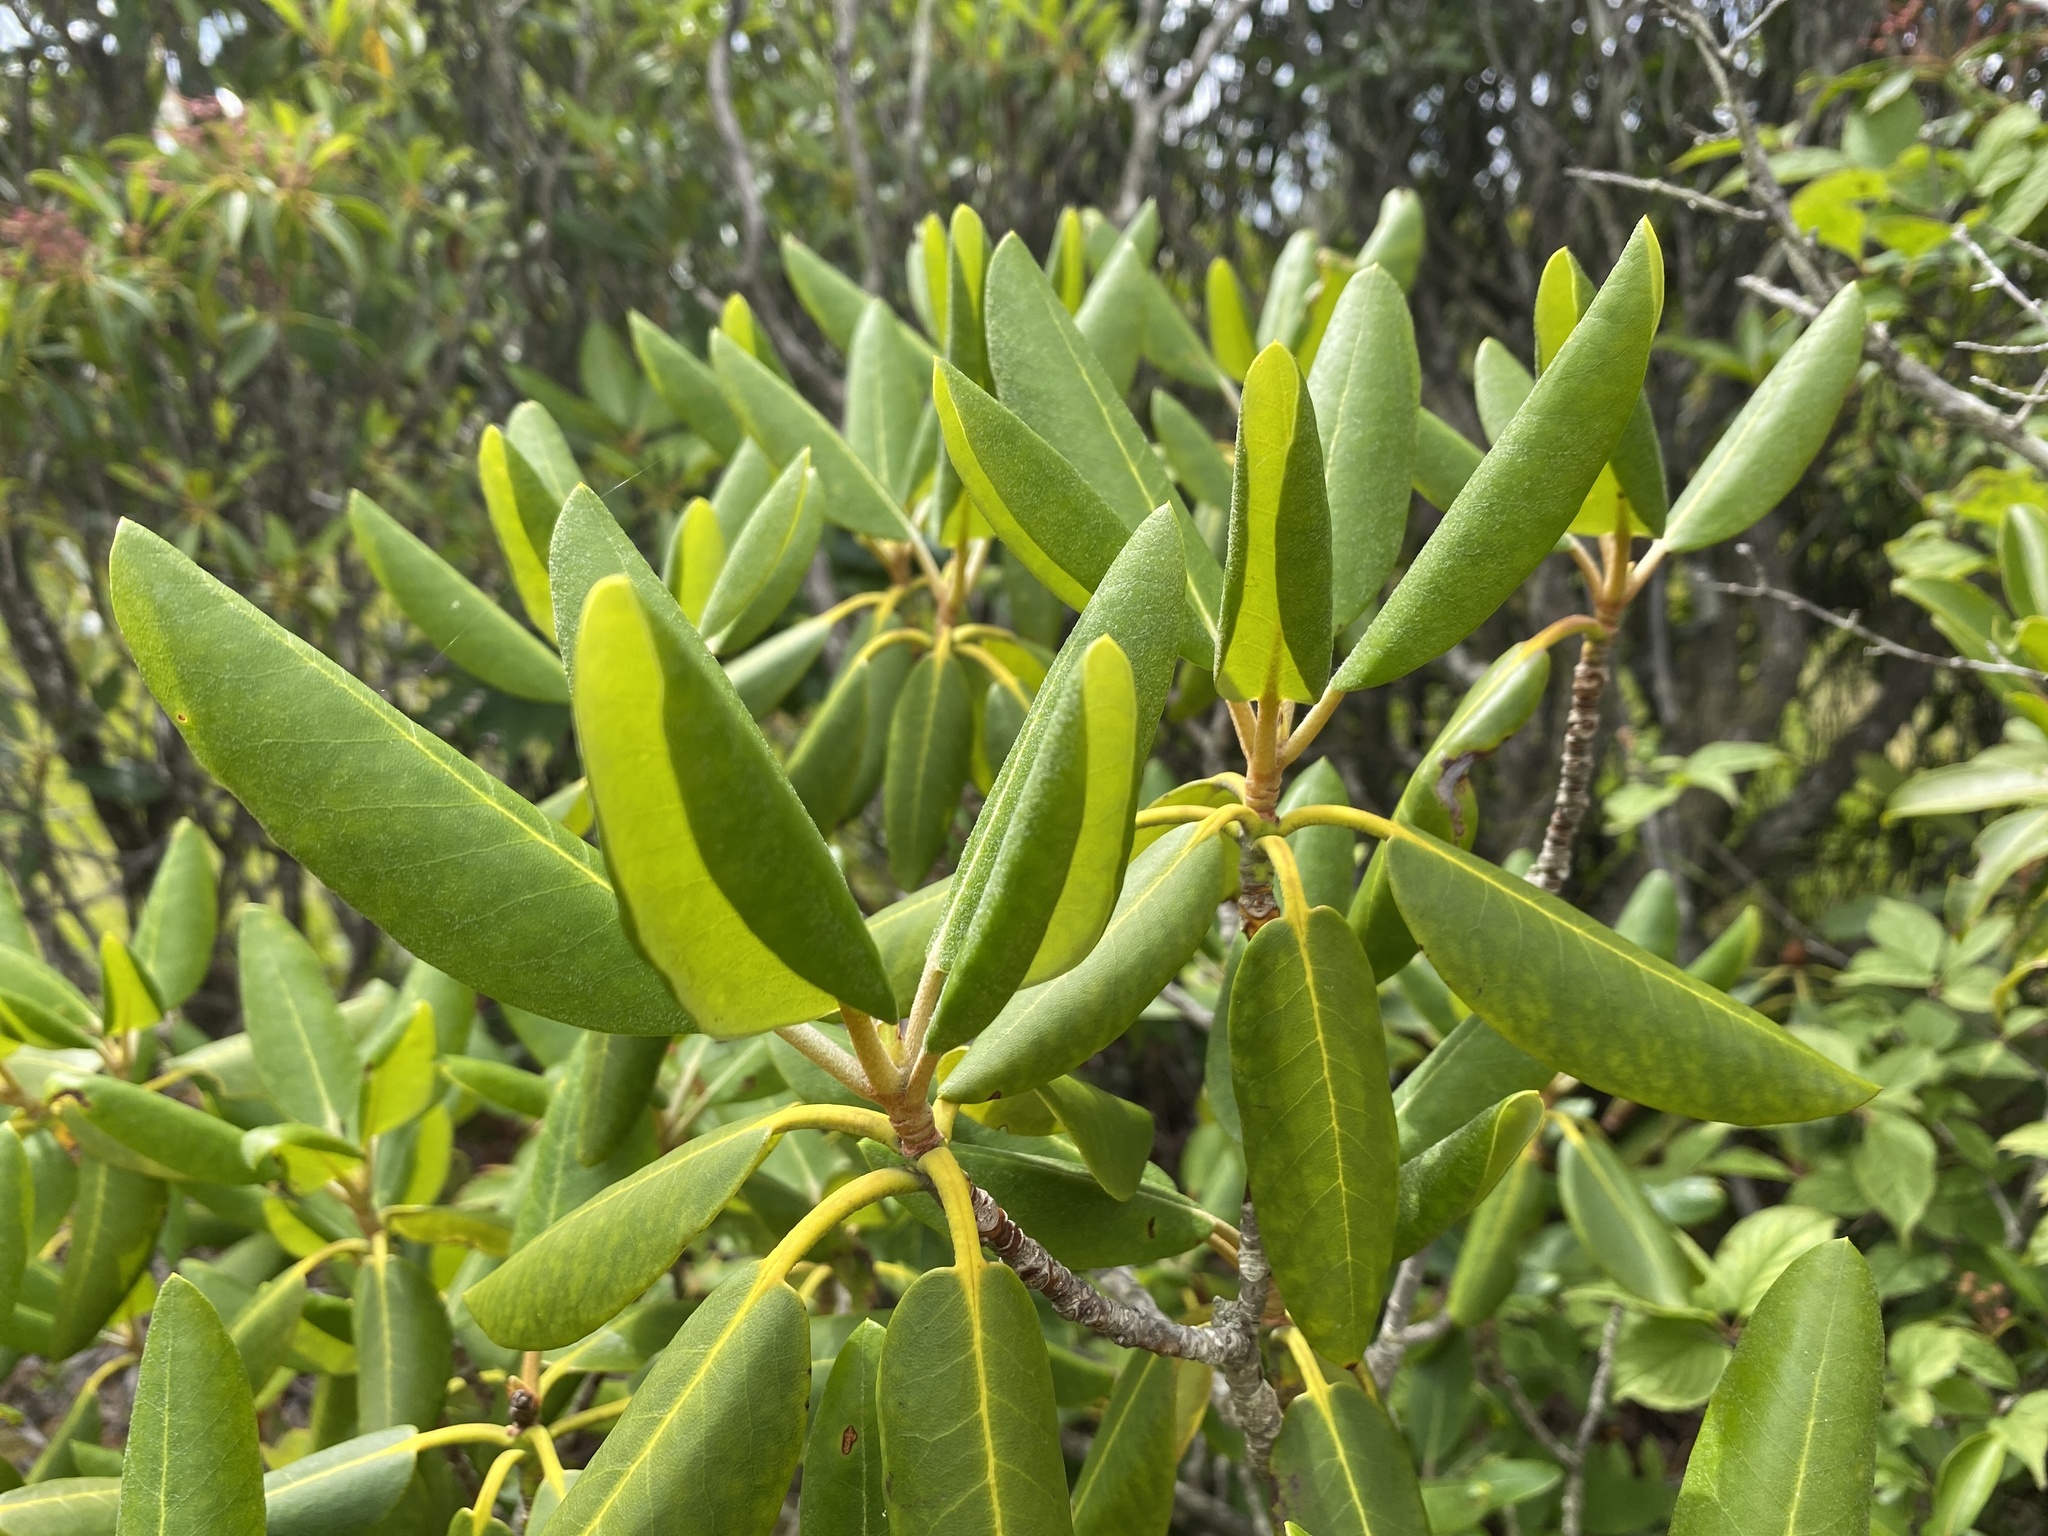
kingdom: Plantae
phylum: Tracheophyta
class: Magnoliopsida
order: Ericales
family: Ericaceae
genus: Rhododendron
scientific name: Rhododendron catawbiense
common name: Catawba rhododendron
